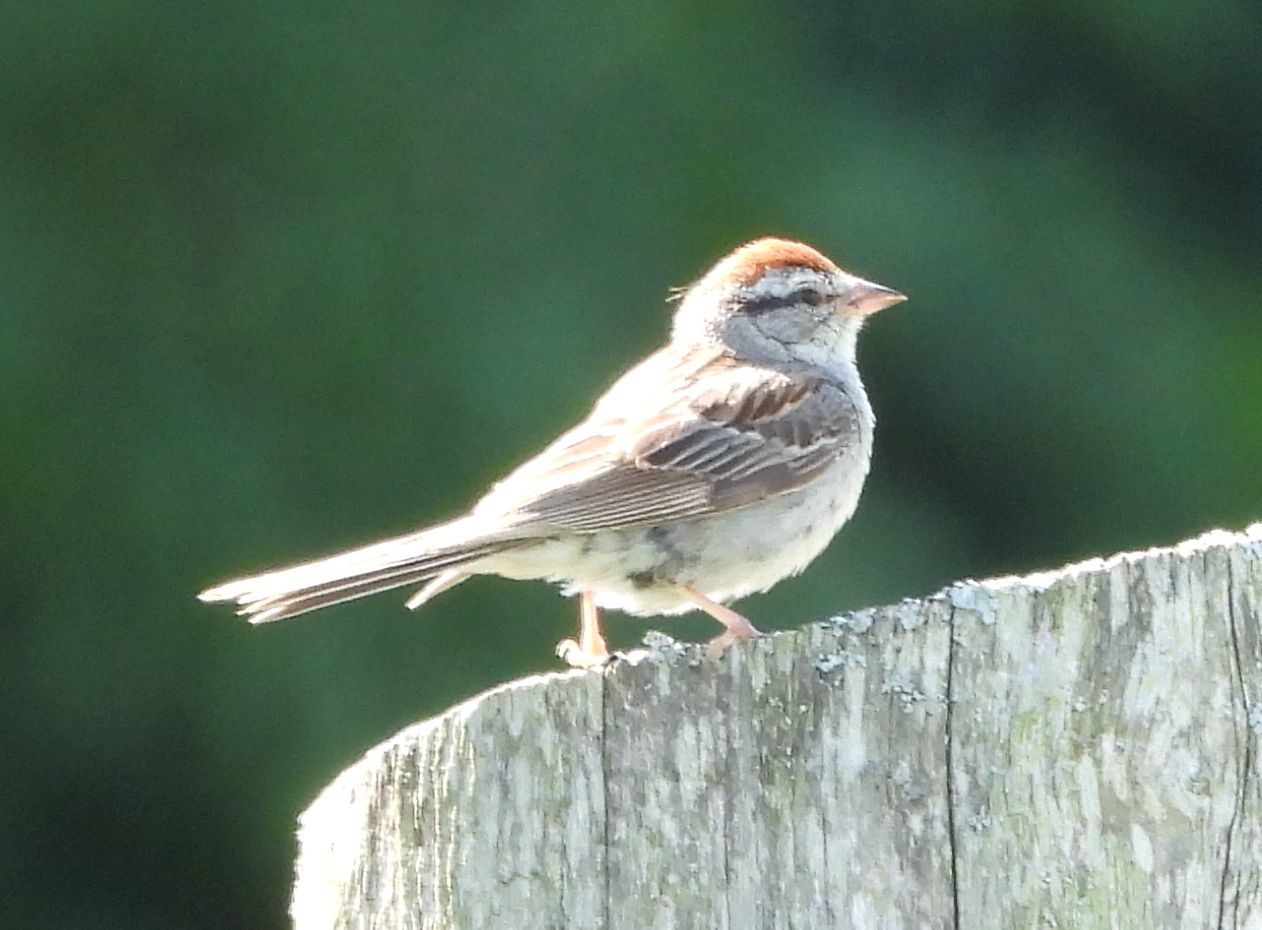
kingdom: Animalia
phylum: Chordata
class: Aves
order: Passeriformes
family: Passerellidae
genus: Spizella
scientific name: Spizella passerina
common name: Chipping sparrow
